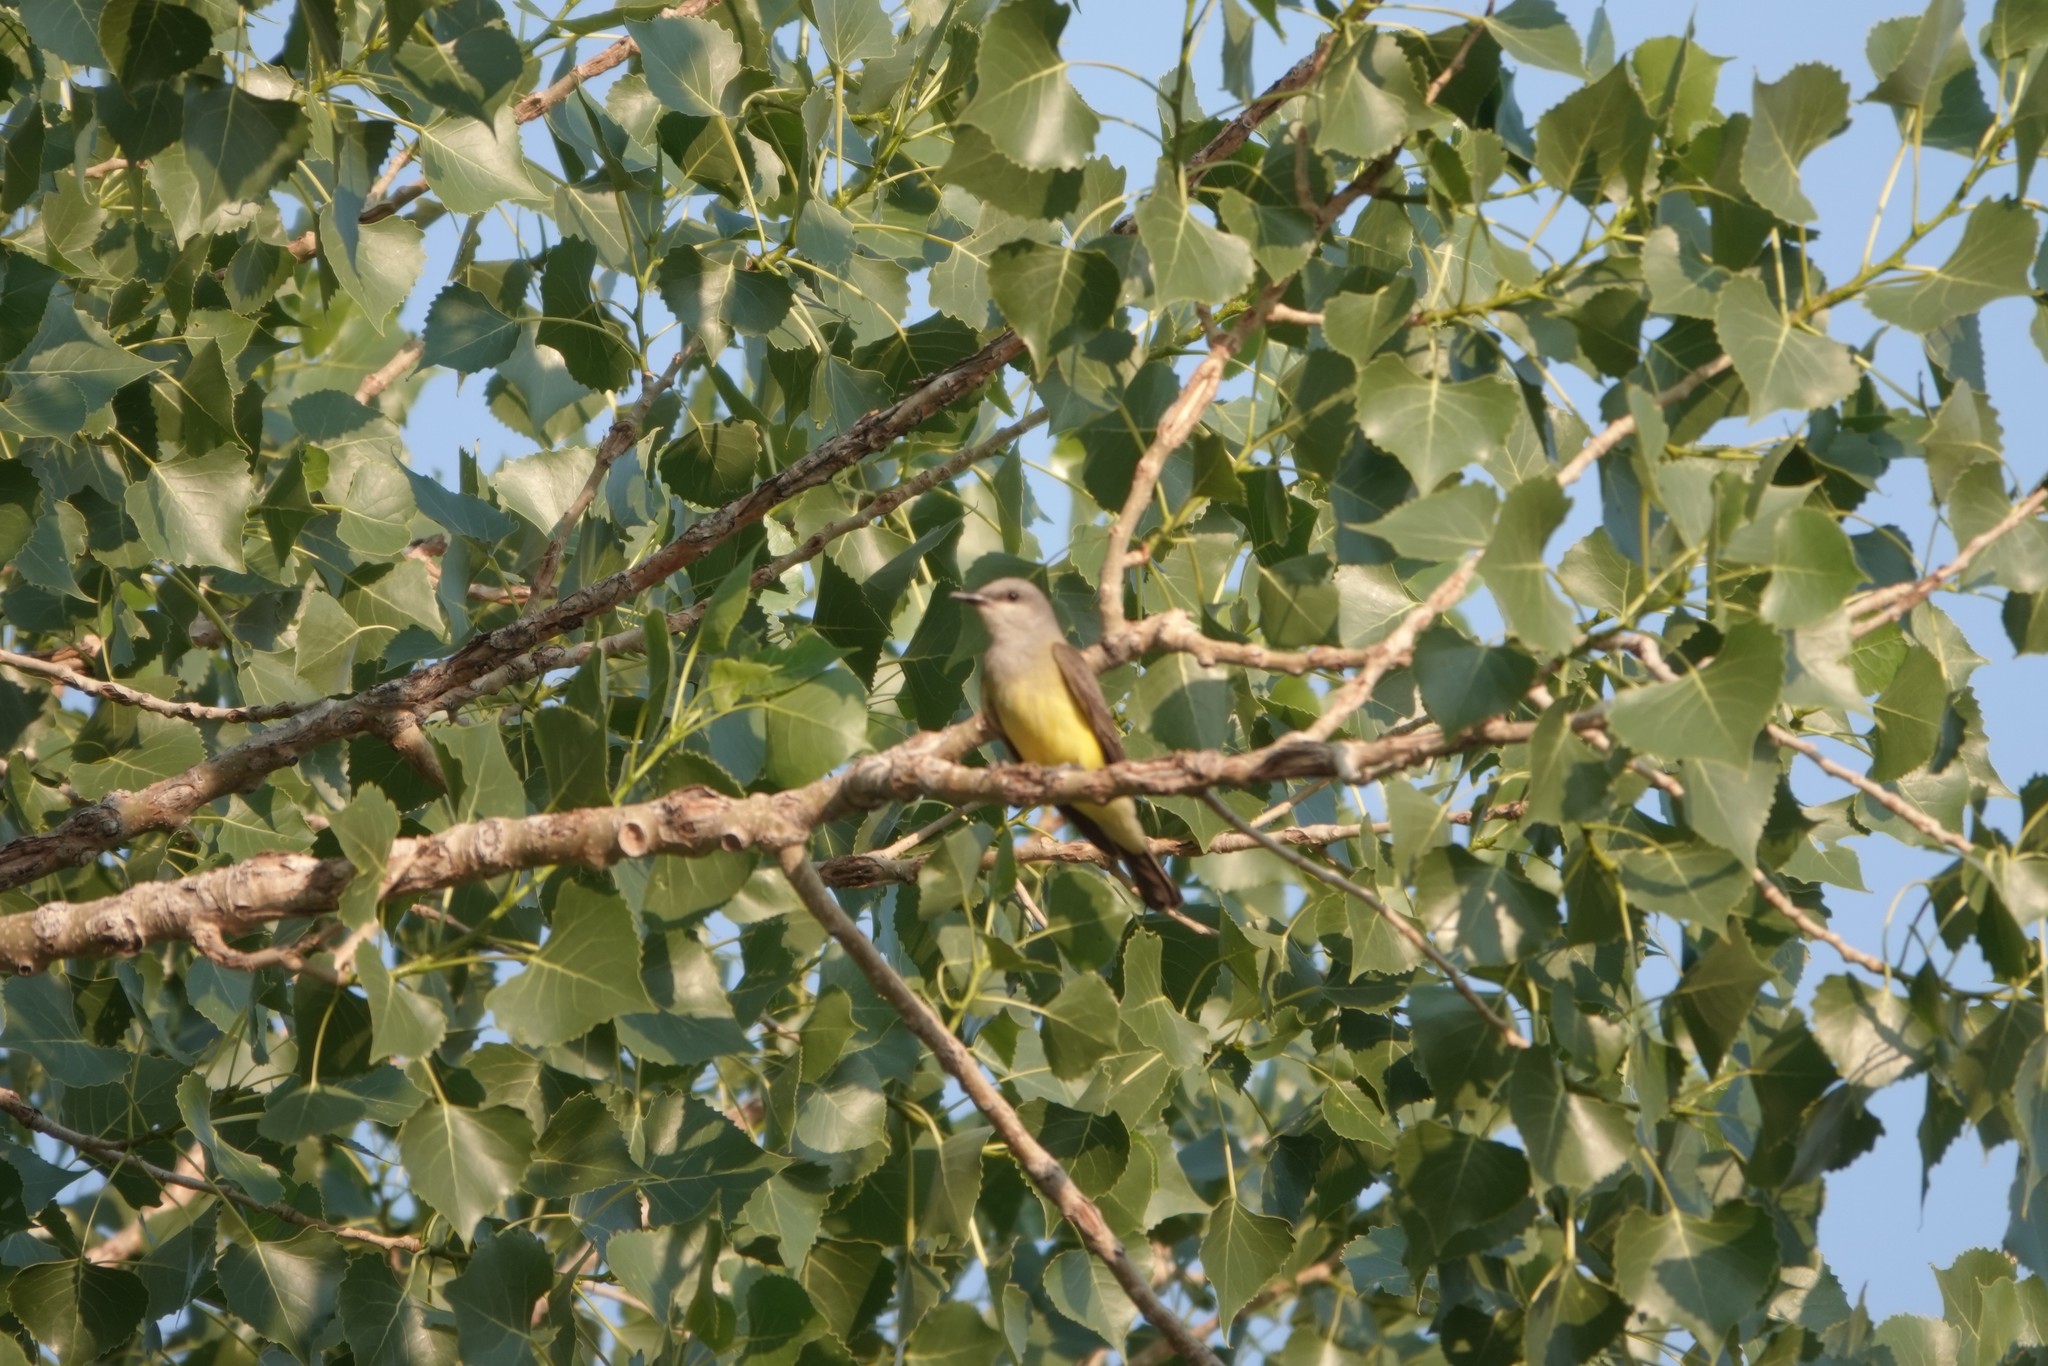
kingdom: Animalia
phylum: Chordata
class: Aves
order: Passeriformes
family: Tyrannidae
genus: Tyrannus
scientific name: Tyrannus verticalis
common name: Western kingbird
